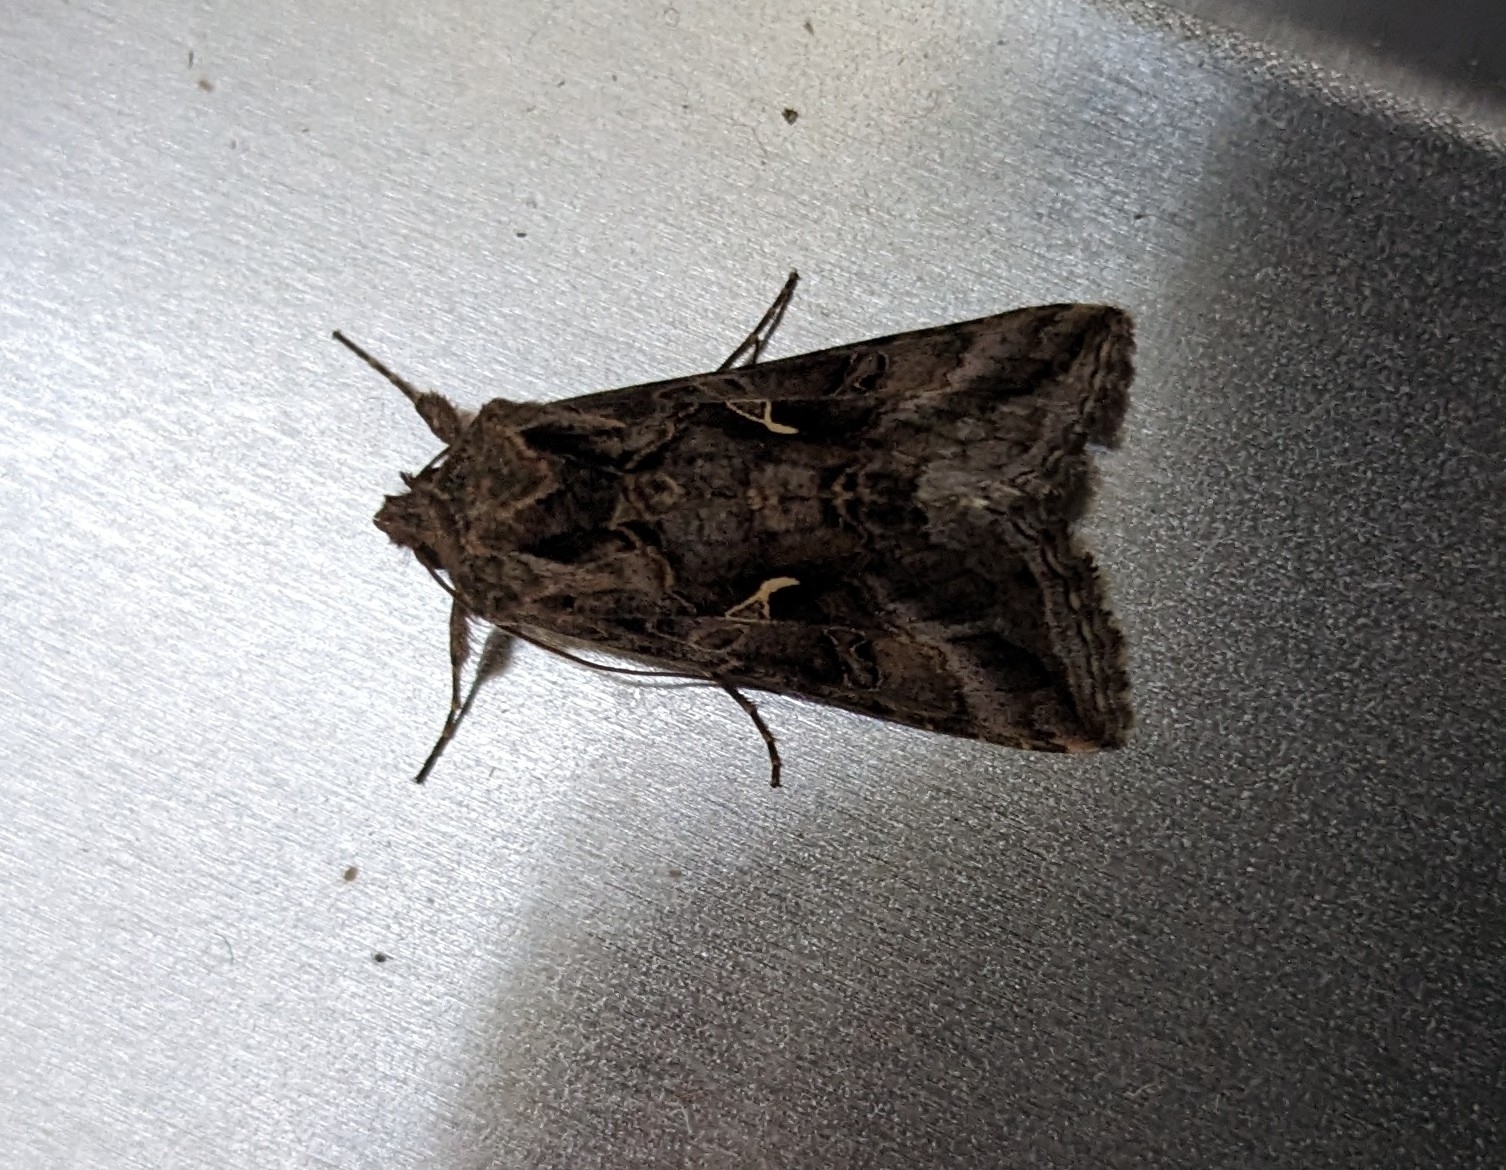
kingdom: Animalia
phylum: Arthropoda
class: Insecta
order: Lepidoptera
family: Noctuidae
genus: Autographa
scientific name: Autographa gamma
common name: Silver y
